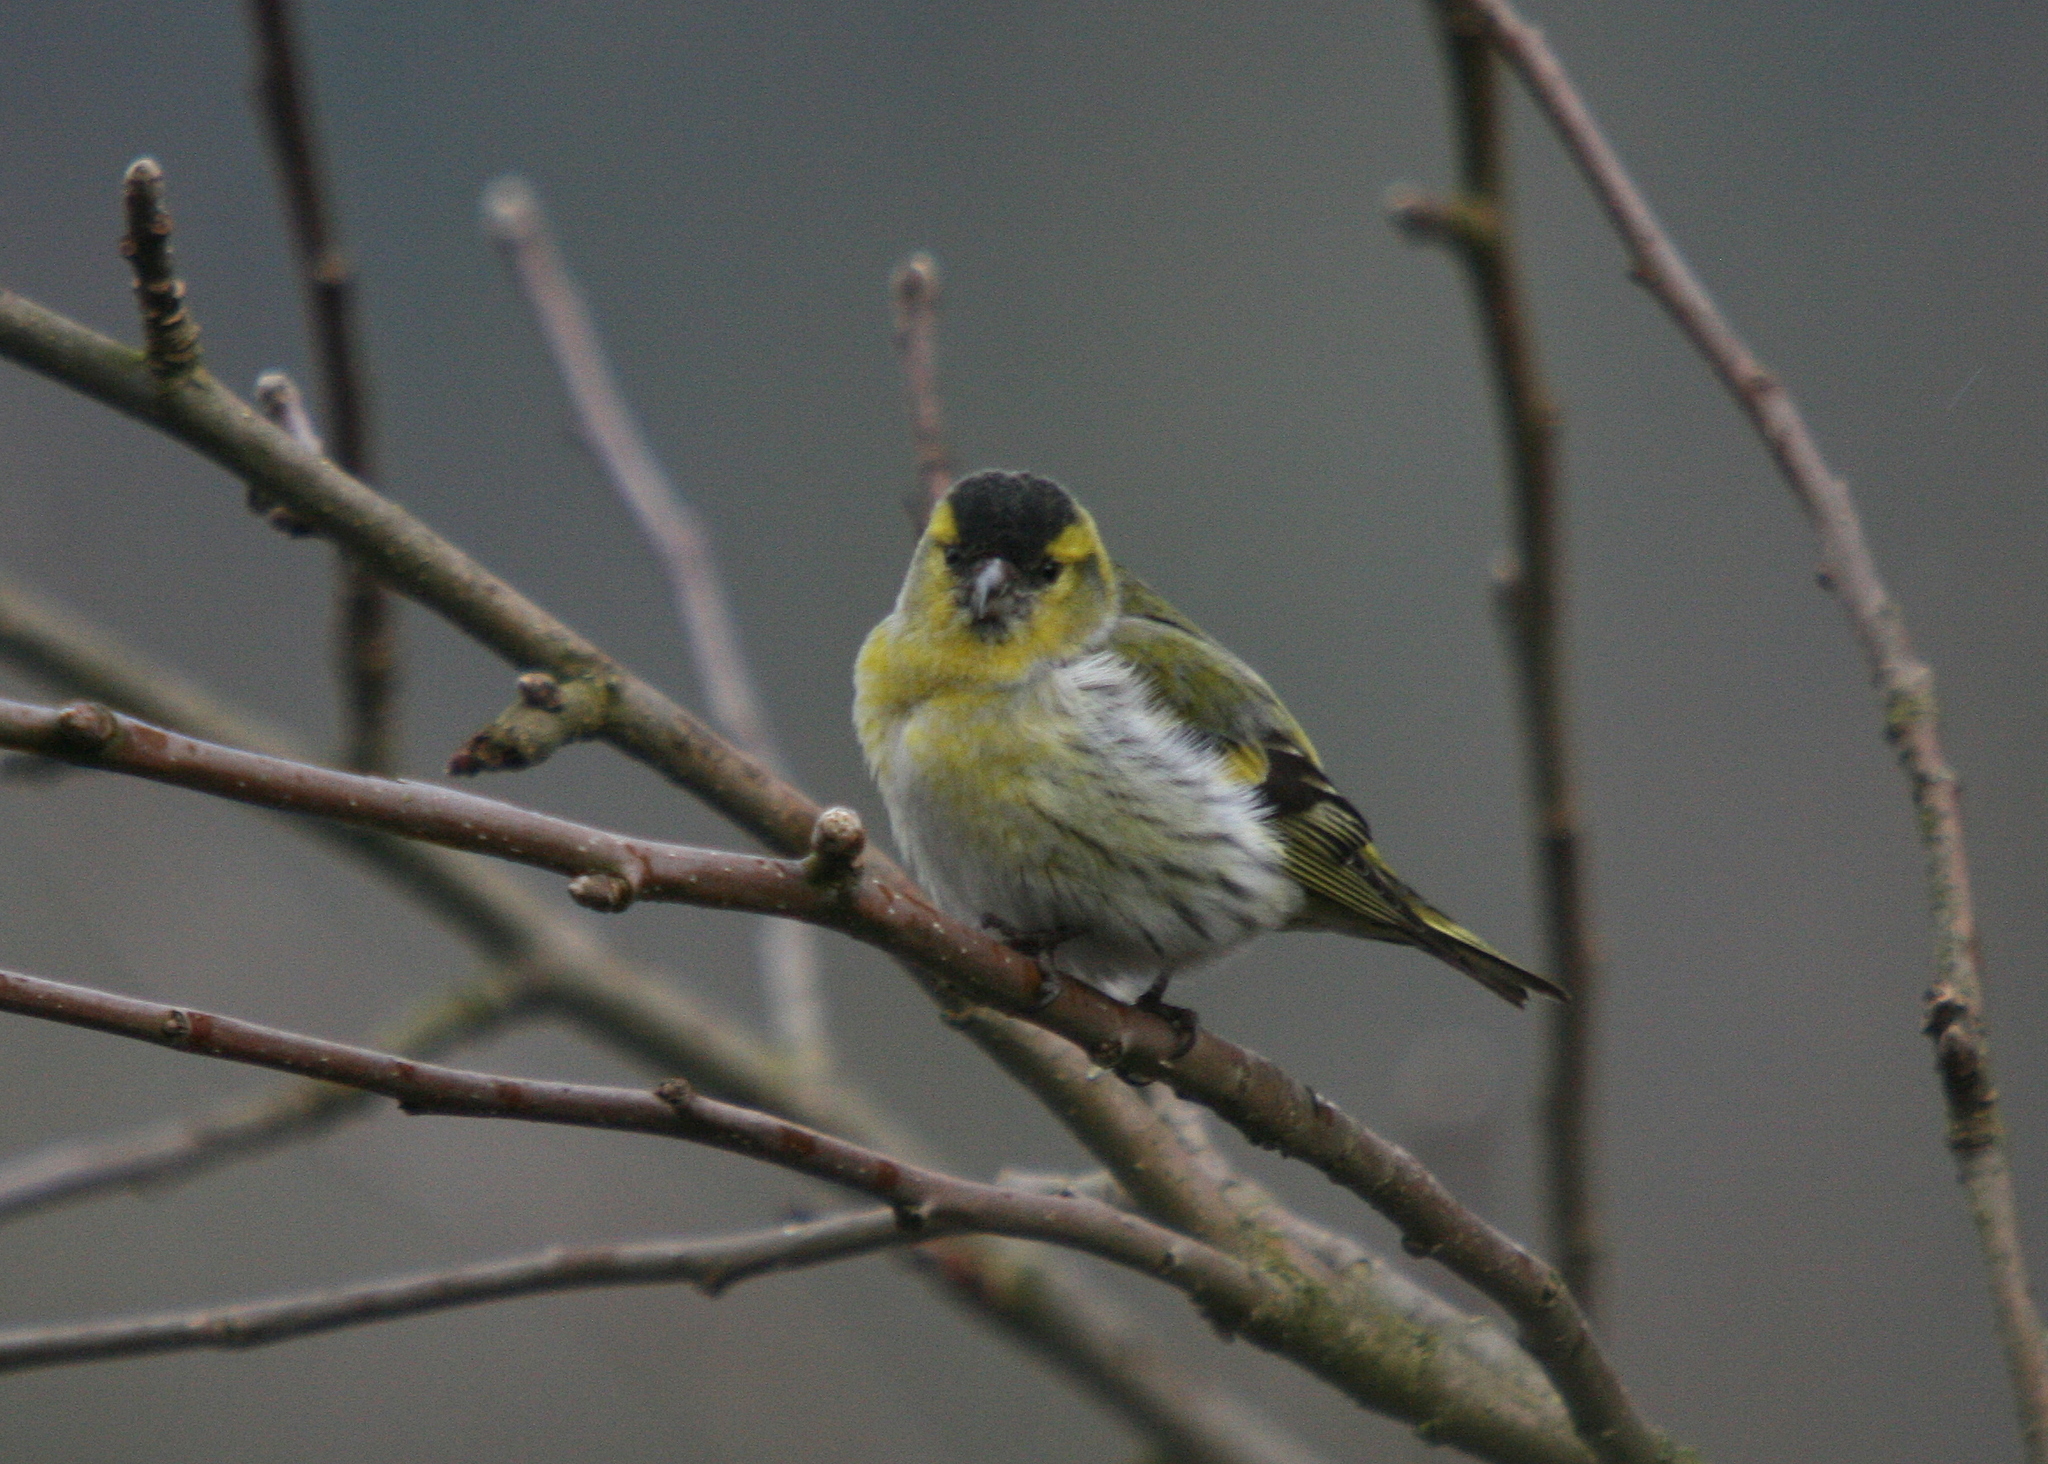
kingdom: Animalia
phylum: Chordata
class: Aves
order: Passeriformes
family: Fringillidae
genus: Spinus
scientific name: Spinus spinus
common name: Eurasian siskin
